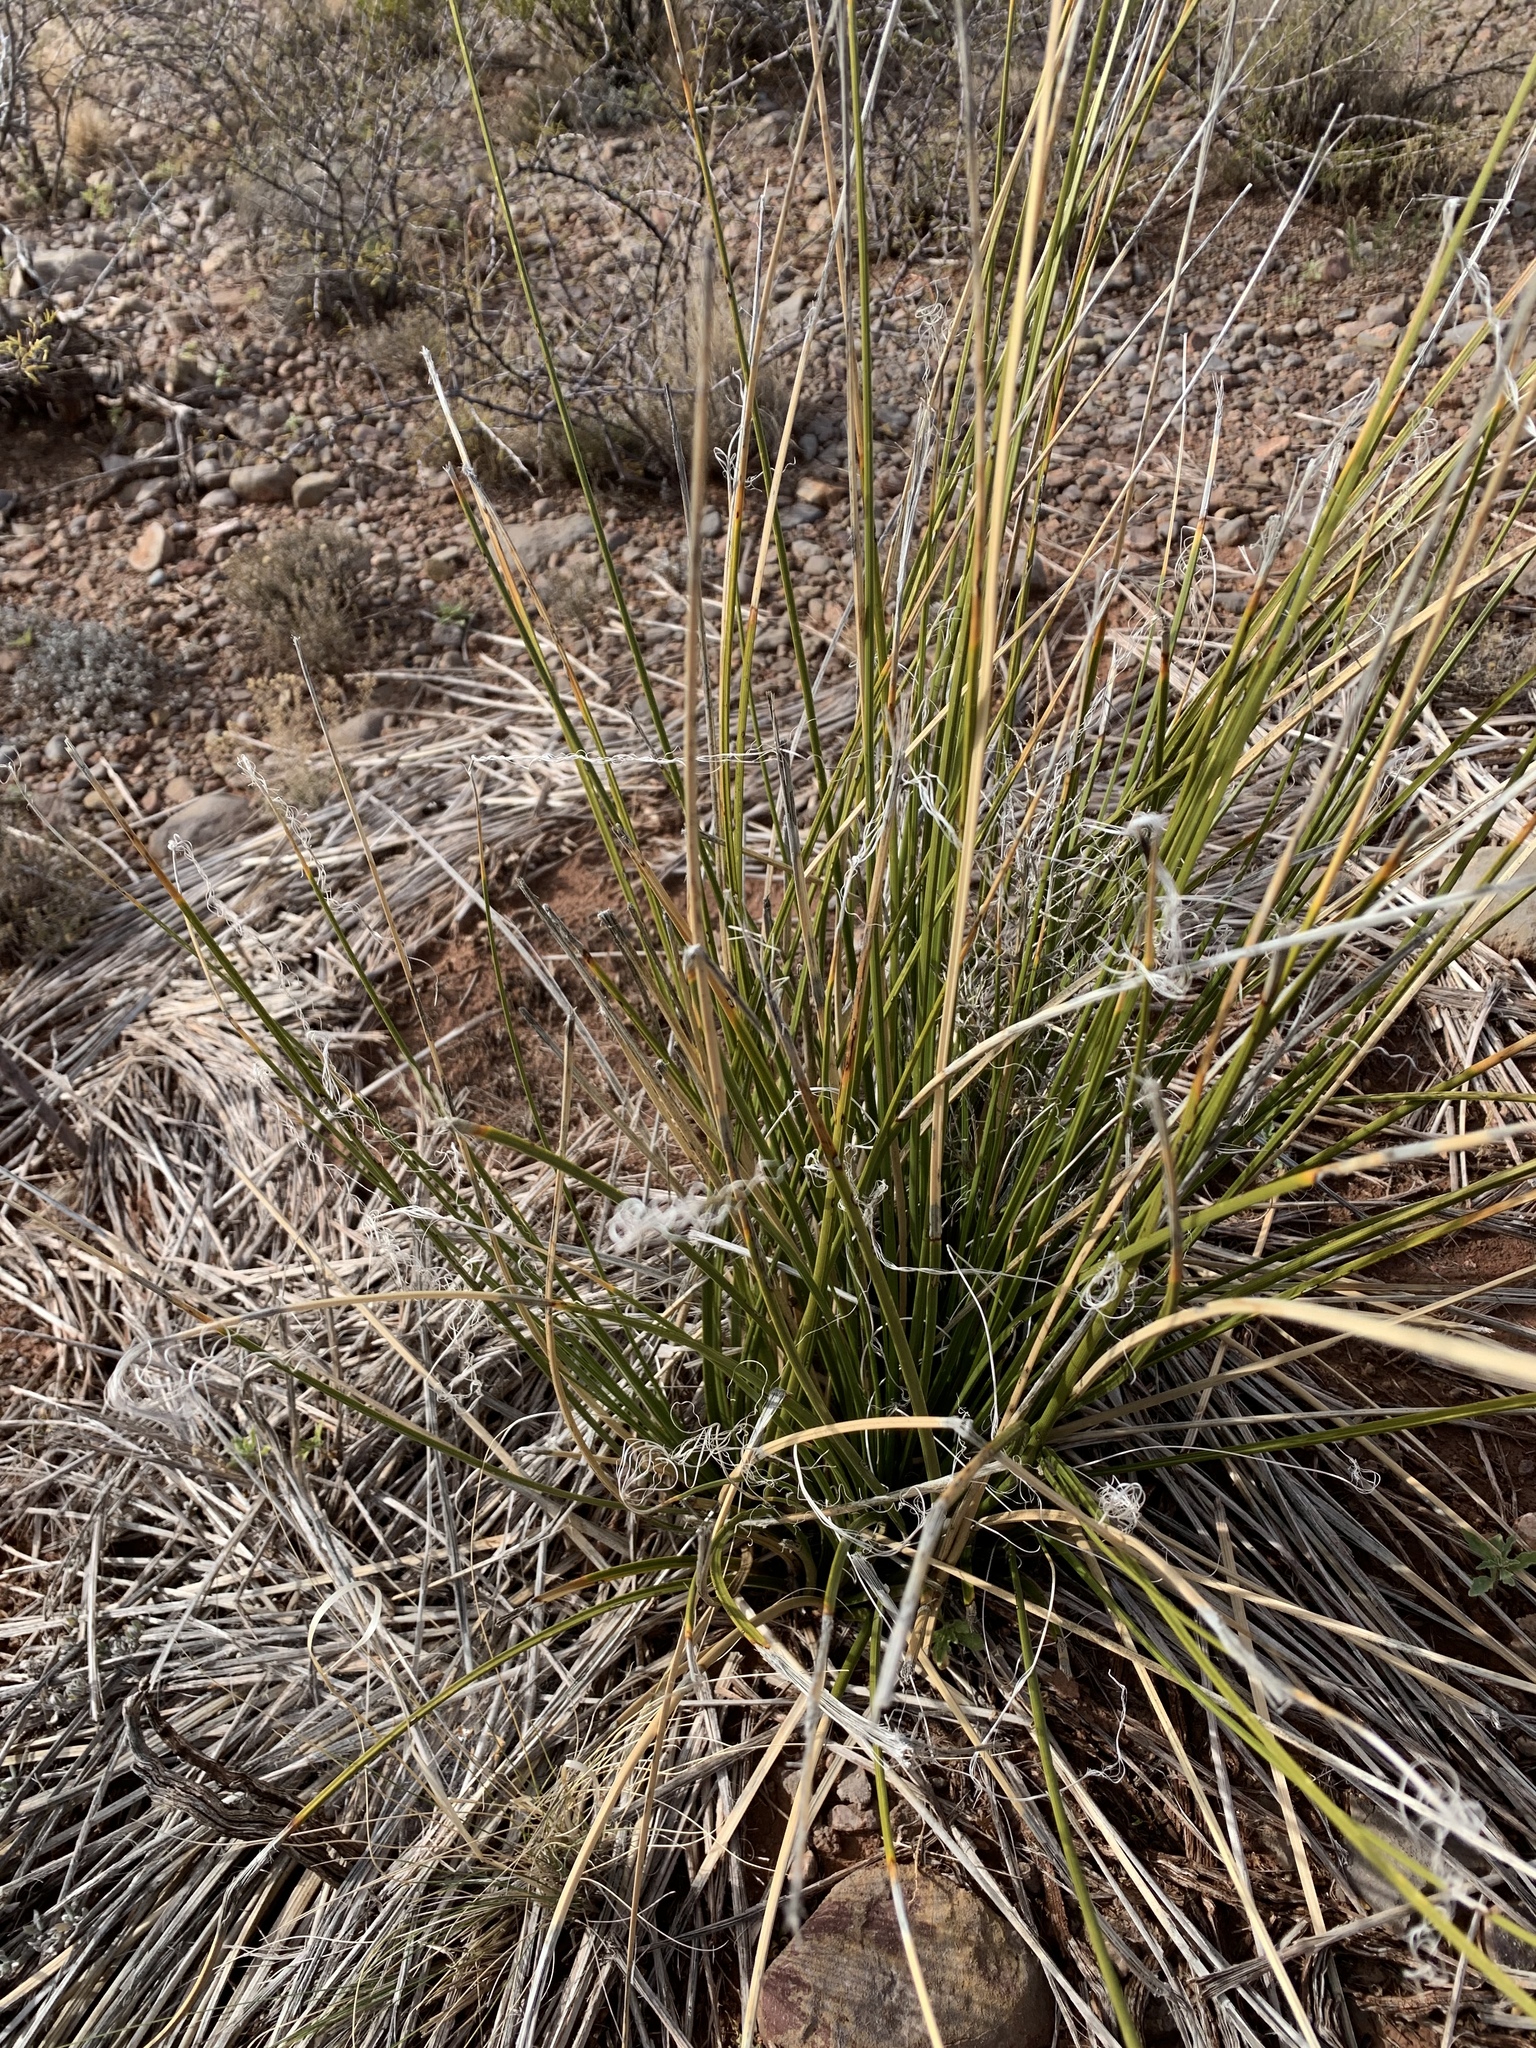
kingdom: Plantae
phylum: Tracheophyta
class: Liliopsida
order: Asparagales
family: Asparagaceae
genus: Nolina
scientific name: Nolina texana
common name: Texas sacahuiste
